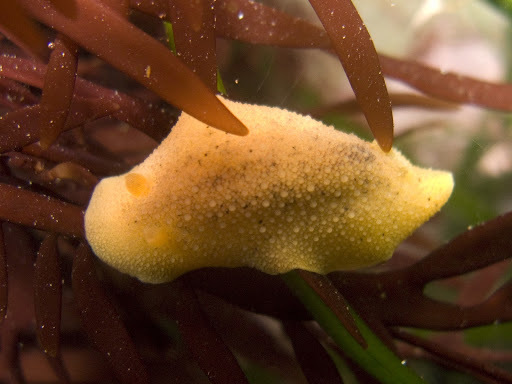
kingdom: Animalia
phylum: Mollusca
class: Gastropoda
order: Nudibranchia
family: Discodorididae
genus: Geitodoris
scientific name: Geitodoris heathi
